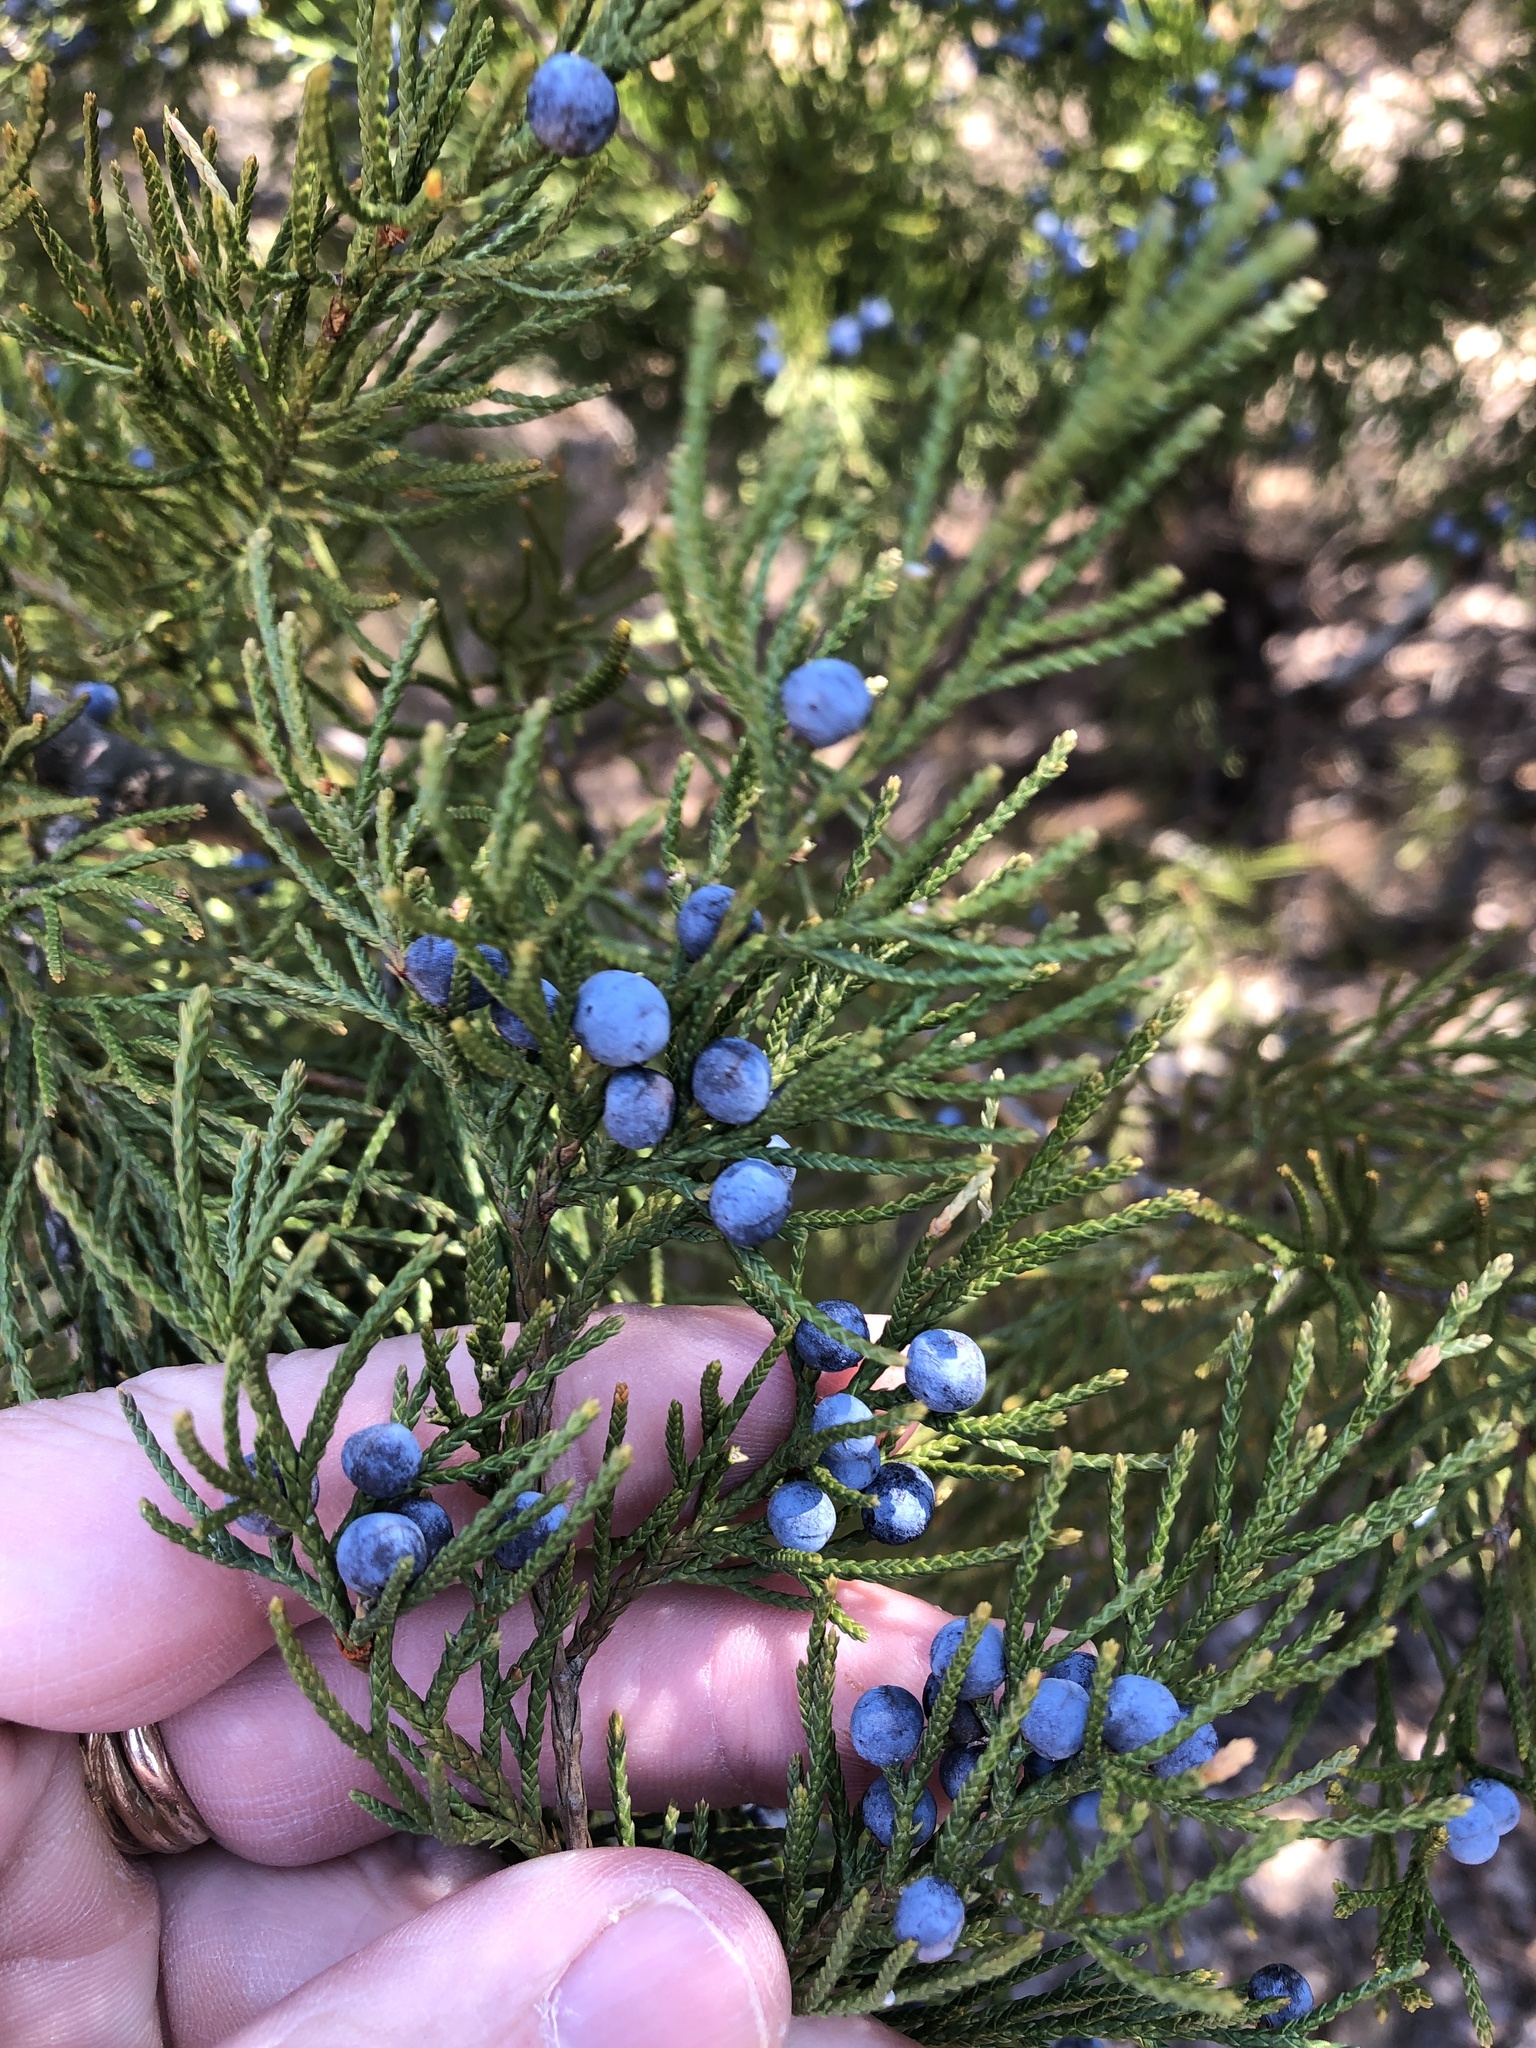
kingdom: Plantae
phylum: Tracheophyta
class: Pinopsida
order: Pinales
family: Cupressaceae
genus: Juniperus
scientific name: Juniperus virginiana
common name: Red juniper
